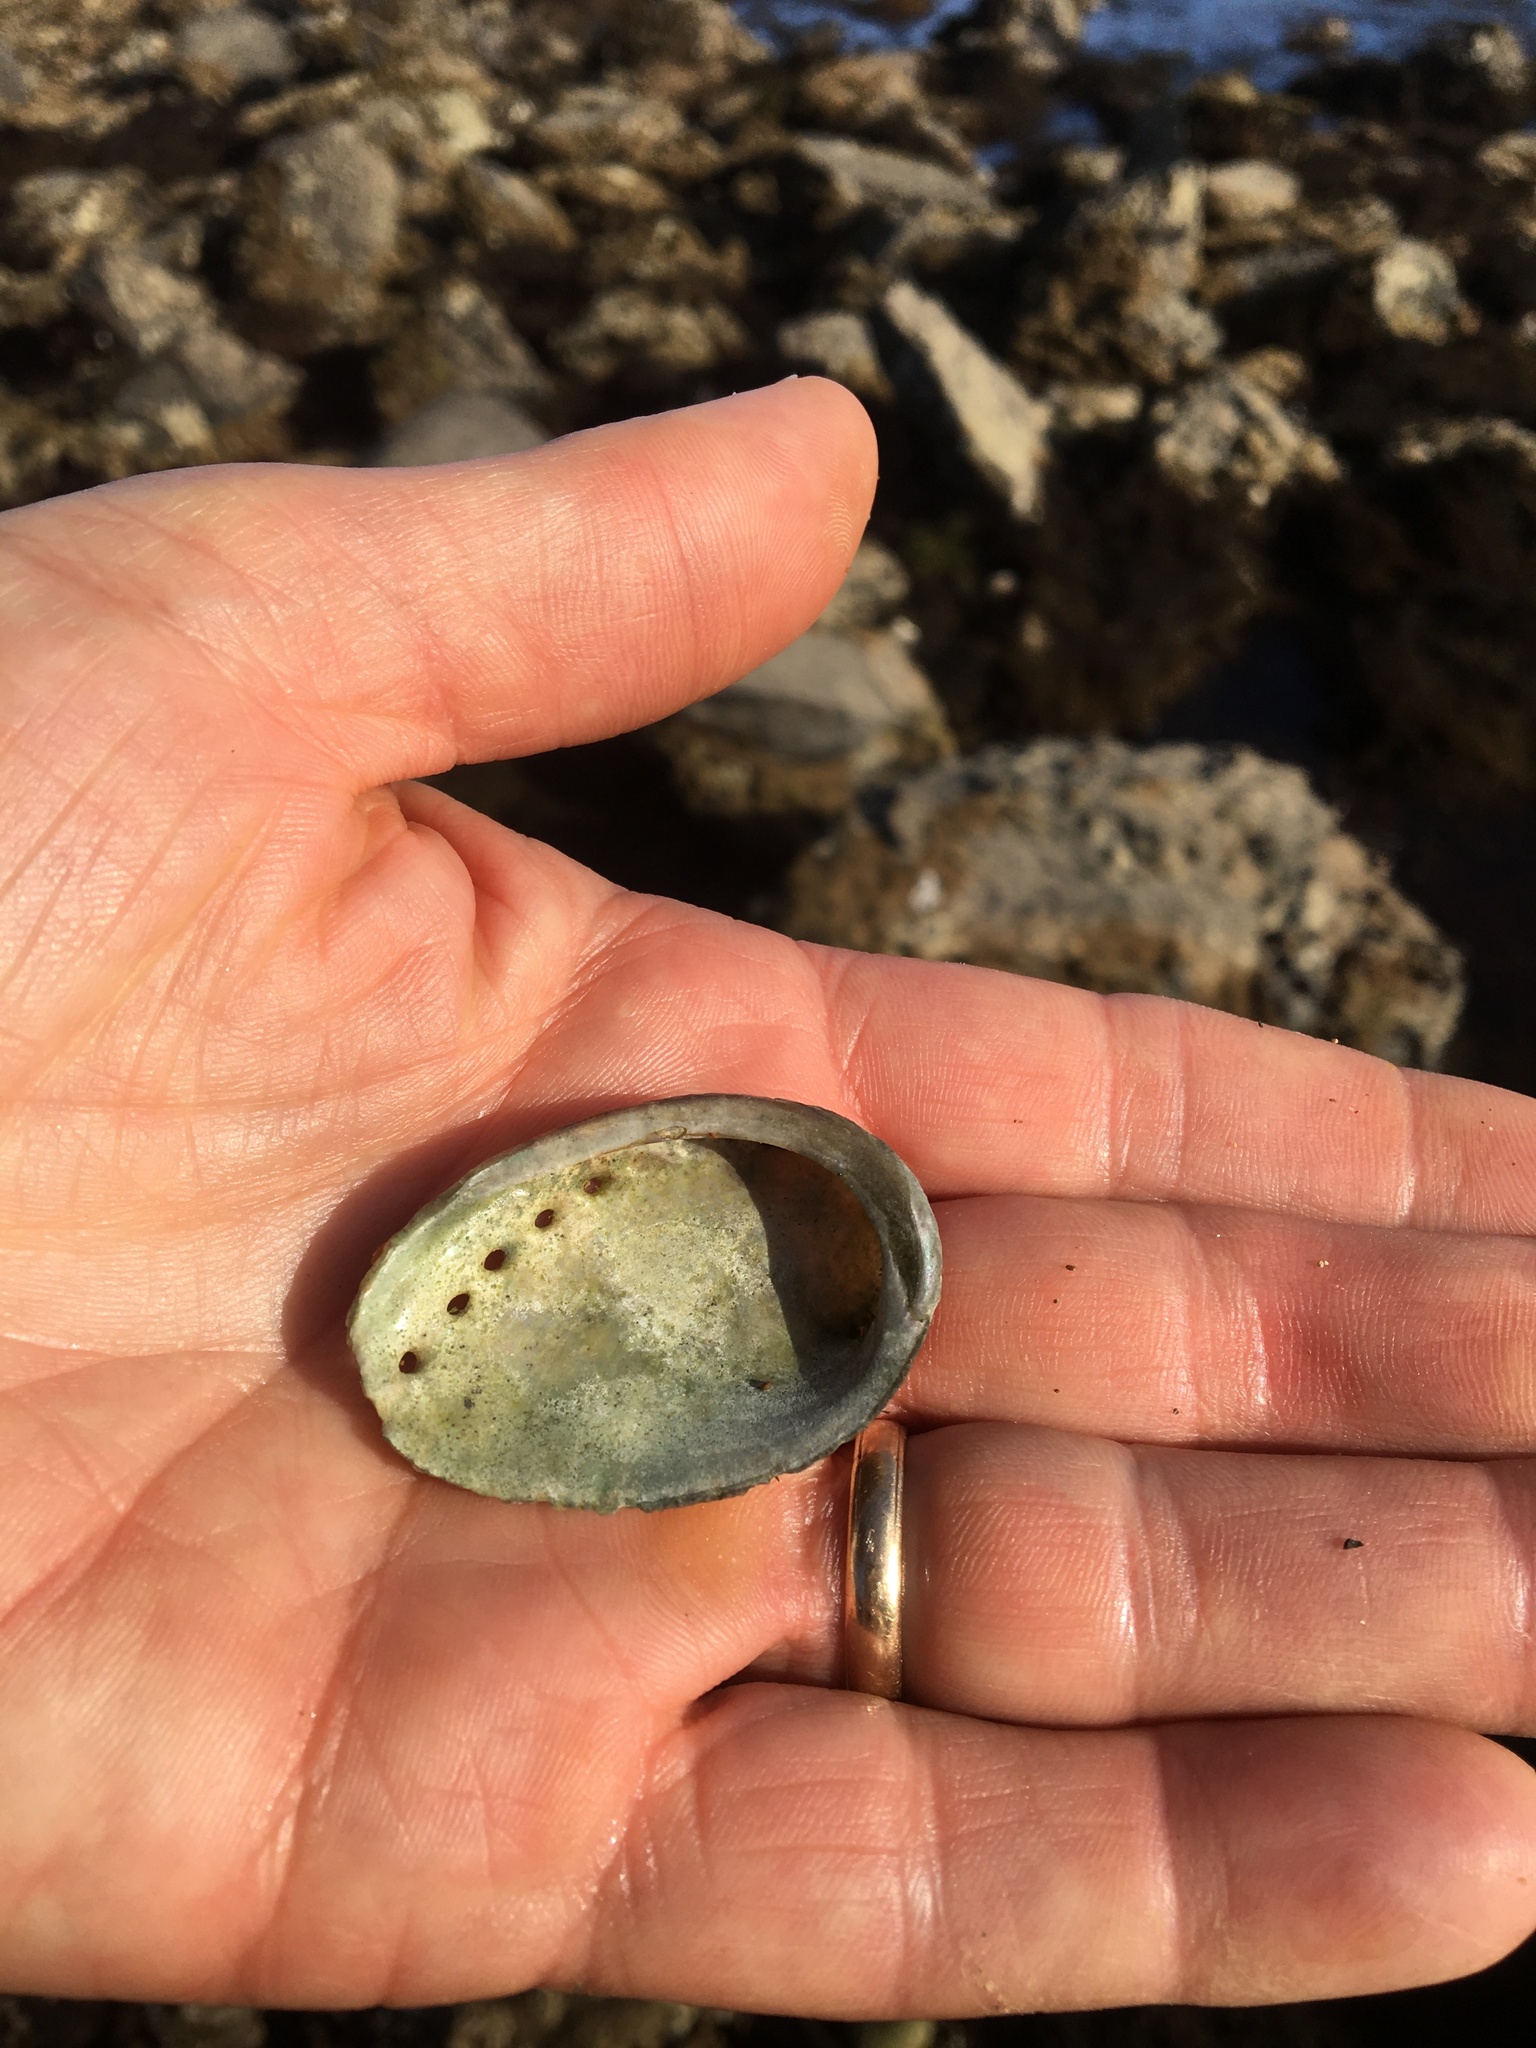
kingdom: Animalia
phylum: Mollusca
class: Gastropoda
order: Lepetellida
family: Haliotidae
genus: Haliotis
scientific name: Haliotis fulgens
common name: Green abalone
